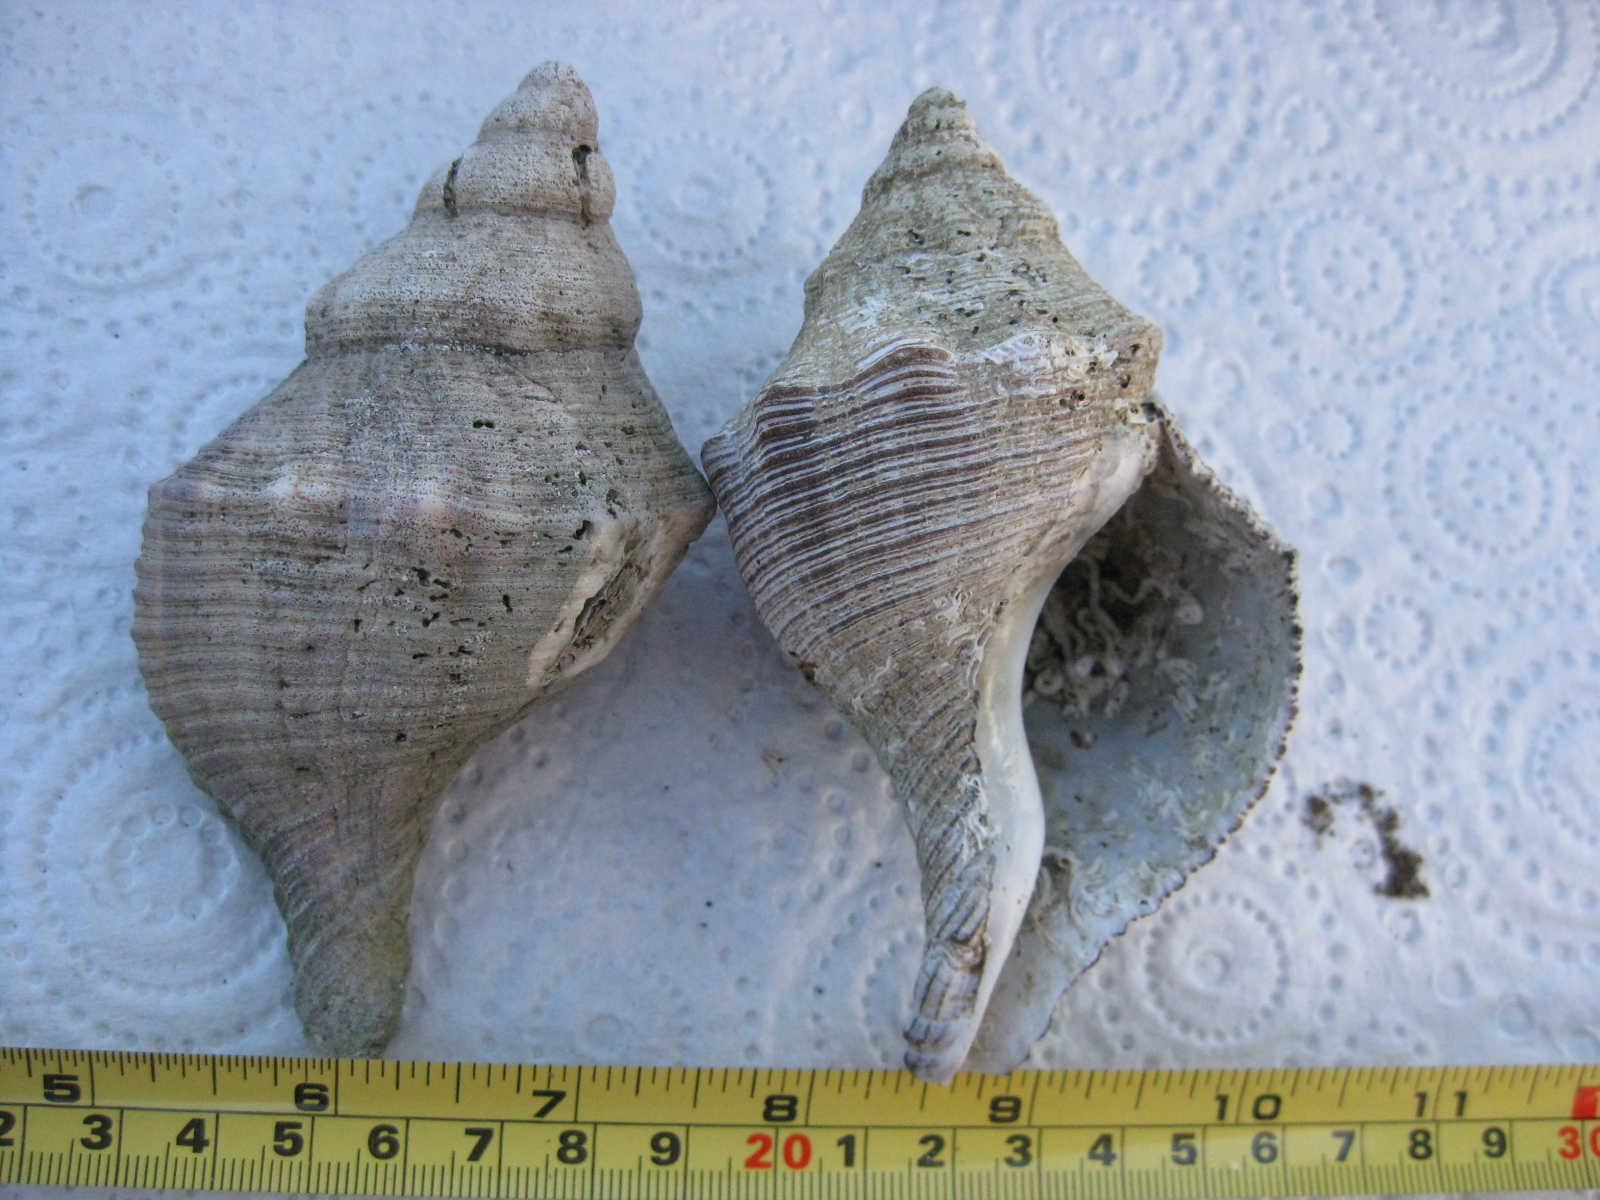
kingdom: Animalia
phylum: Mollusca
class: Gastropoda
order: Neogastropoda
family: Austrosiphonidae
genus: Penion
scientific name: Penion sulcatus
